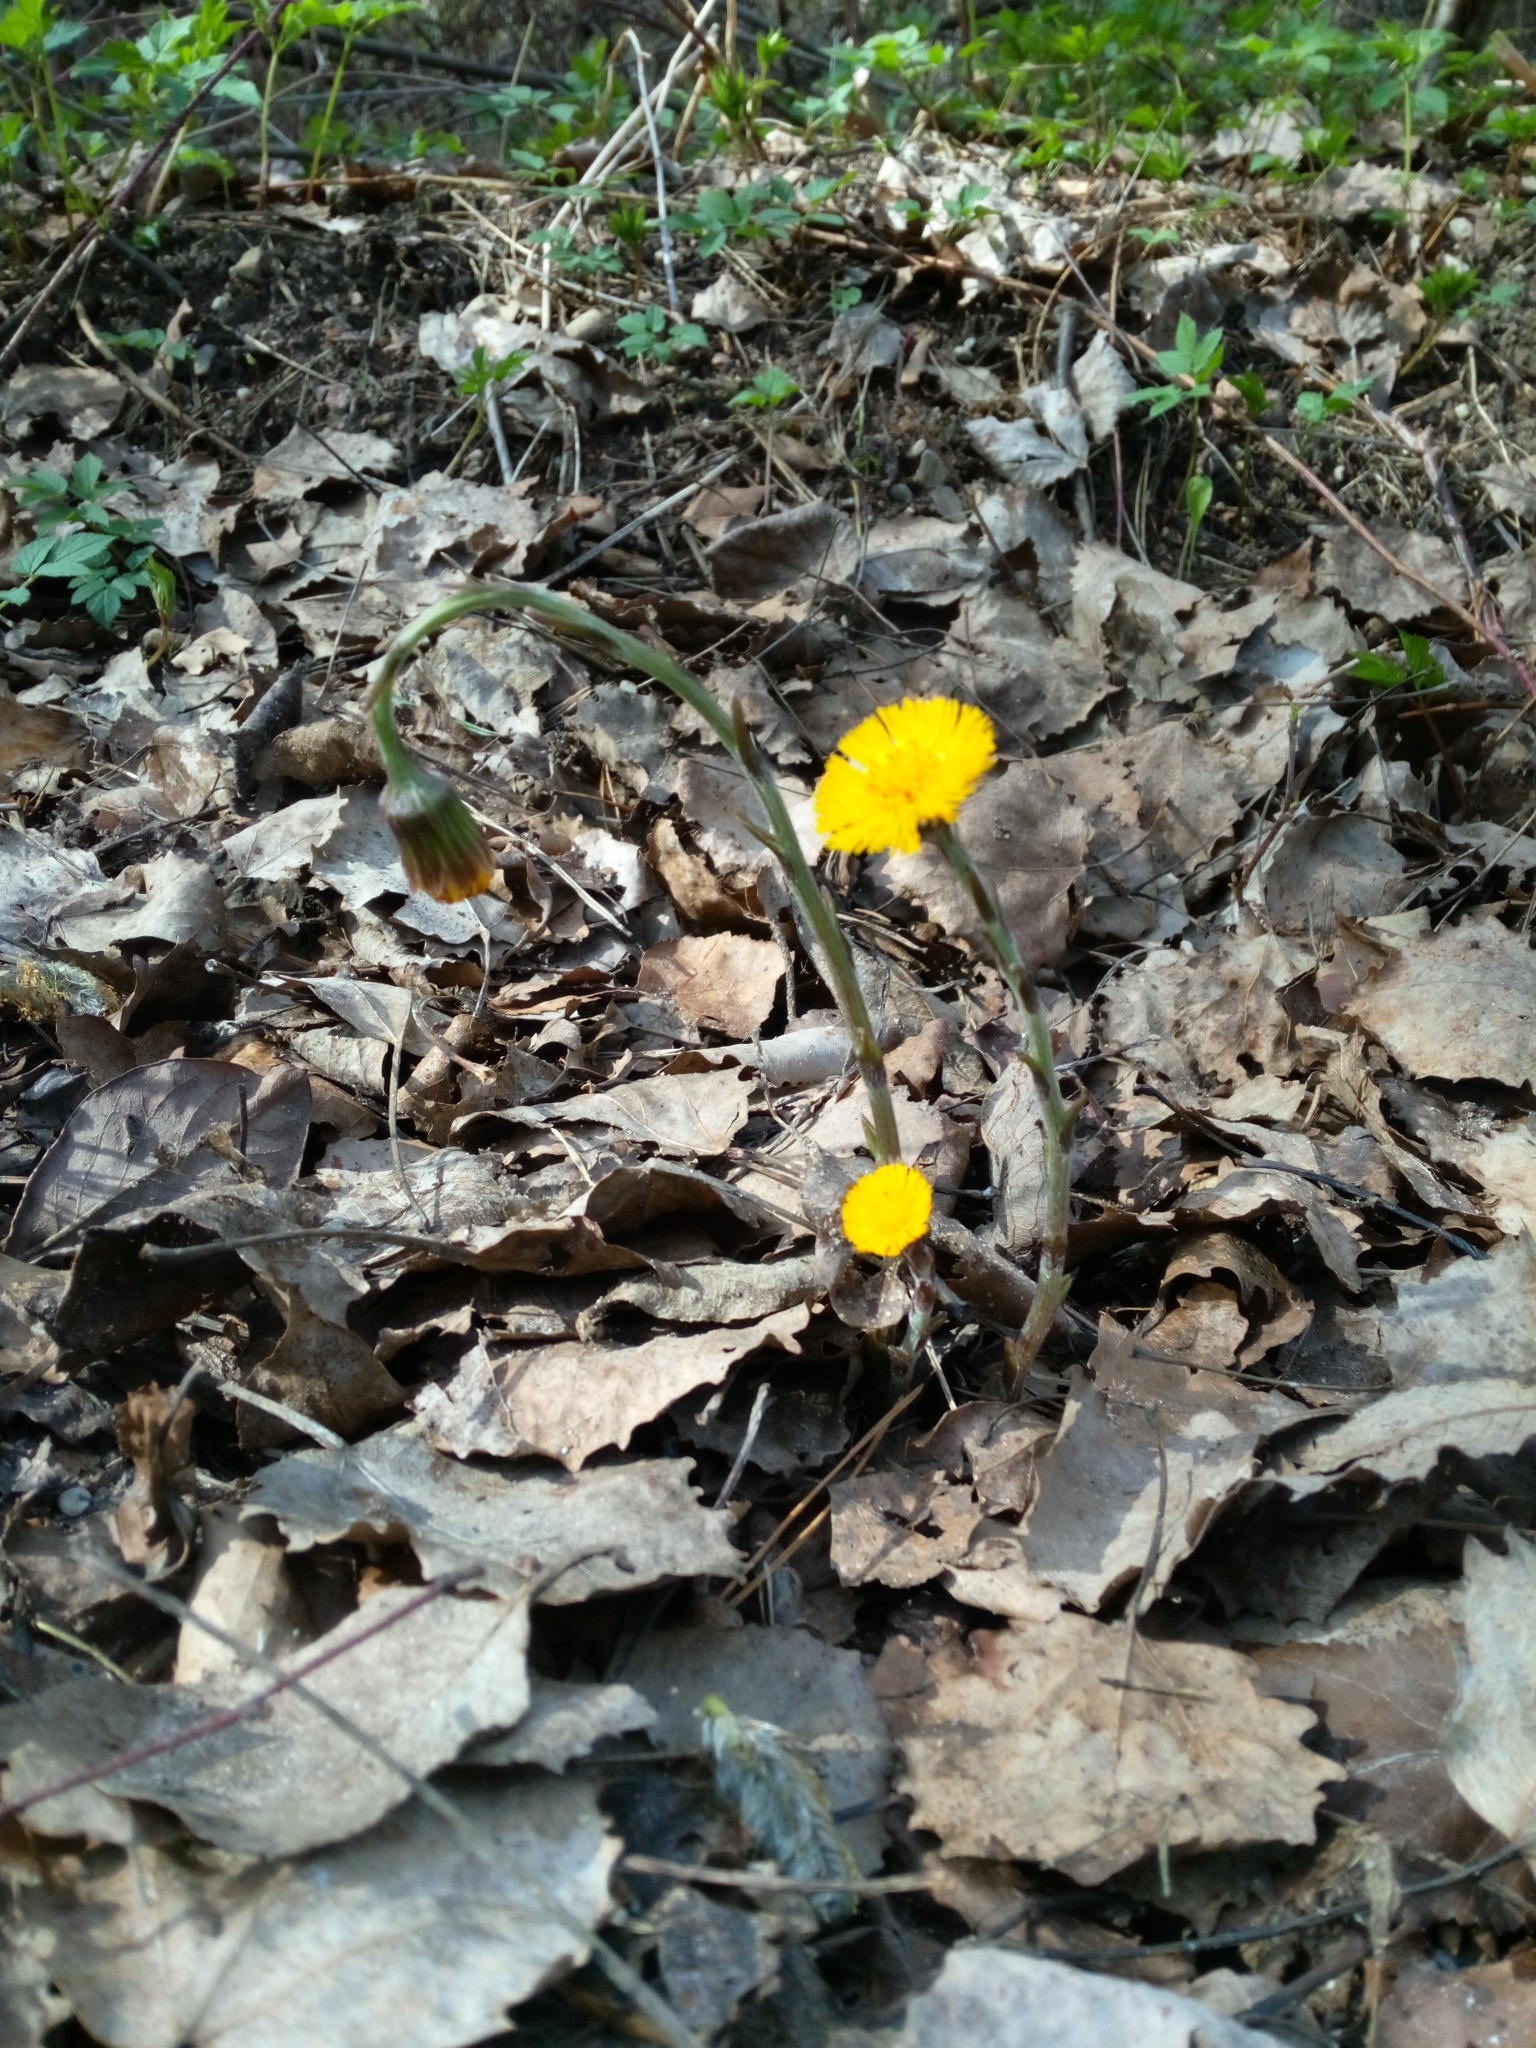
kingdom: Plantae
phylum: Tracheophyta
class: Magnoliopsida
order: Asterales
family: Asteraceae
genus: Tussilago
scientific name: Tussilago farfara
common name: Coltsfoot
